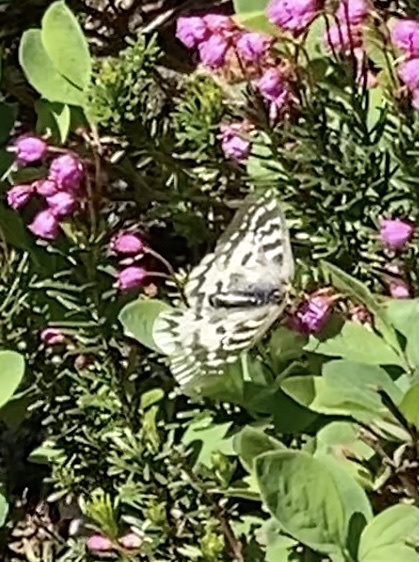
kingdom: Animalia
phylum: Arthropoda
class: Insecta
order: Lepidoptera
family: Papilionidae
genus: Parnassius
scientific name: Parnassius clodius
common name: American apollo
